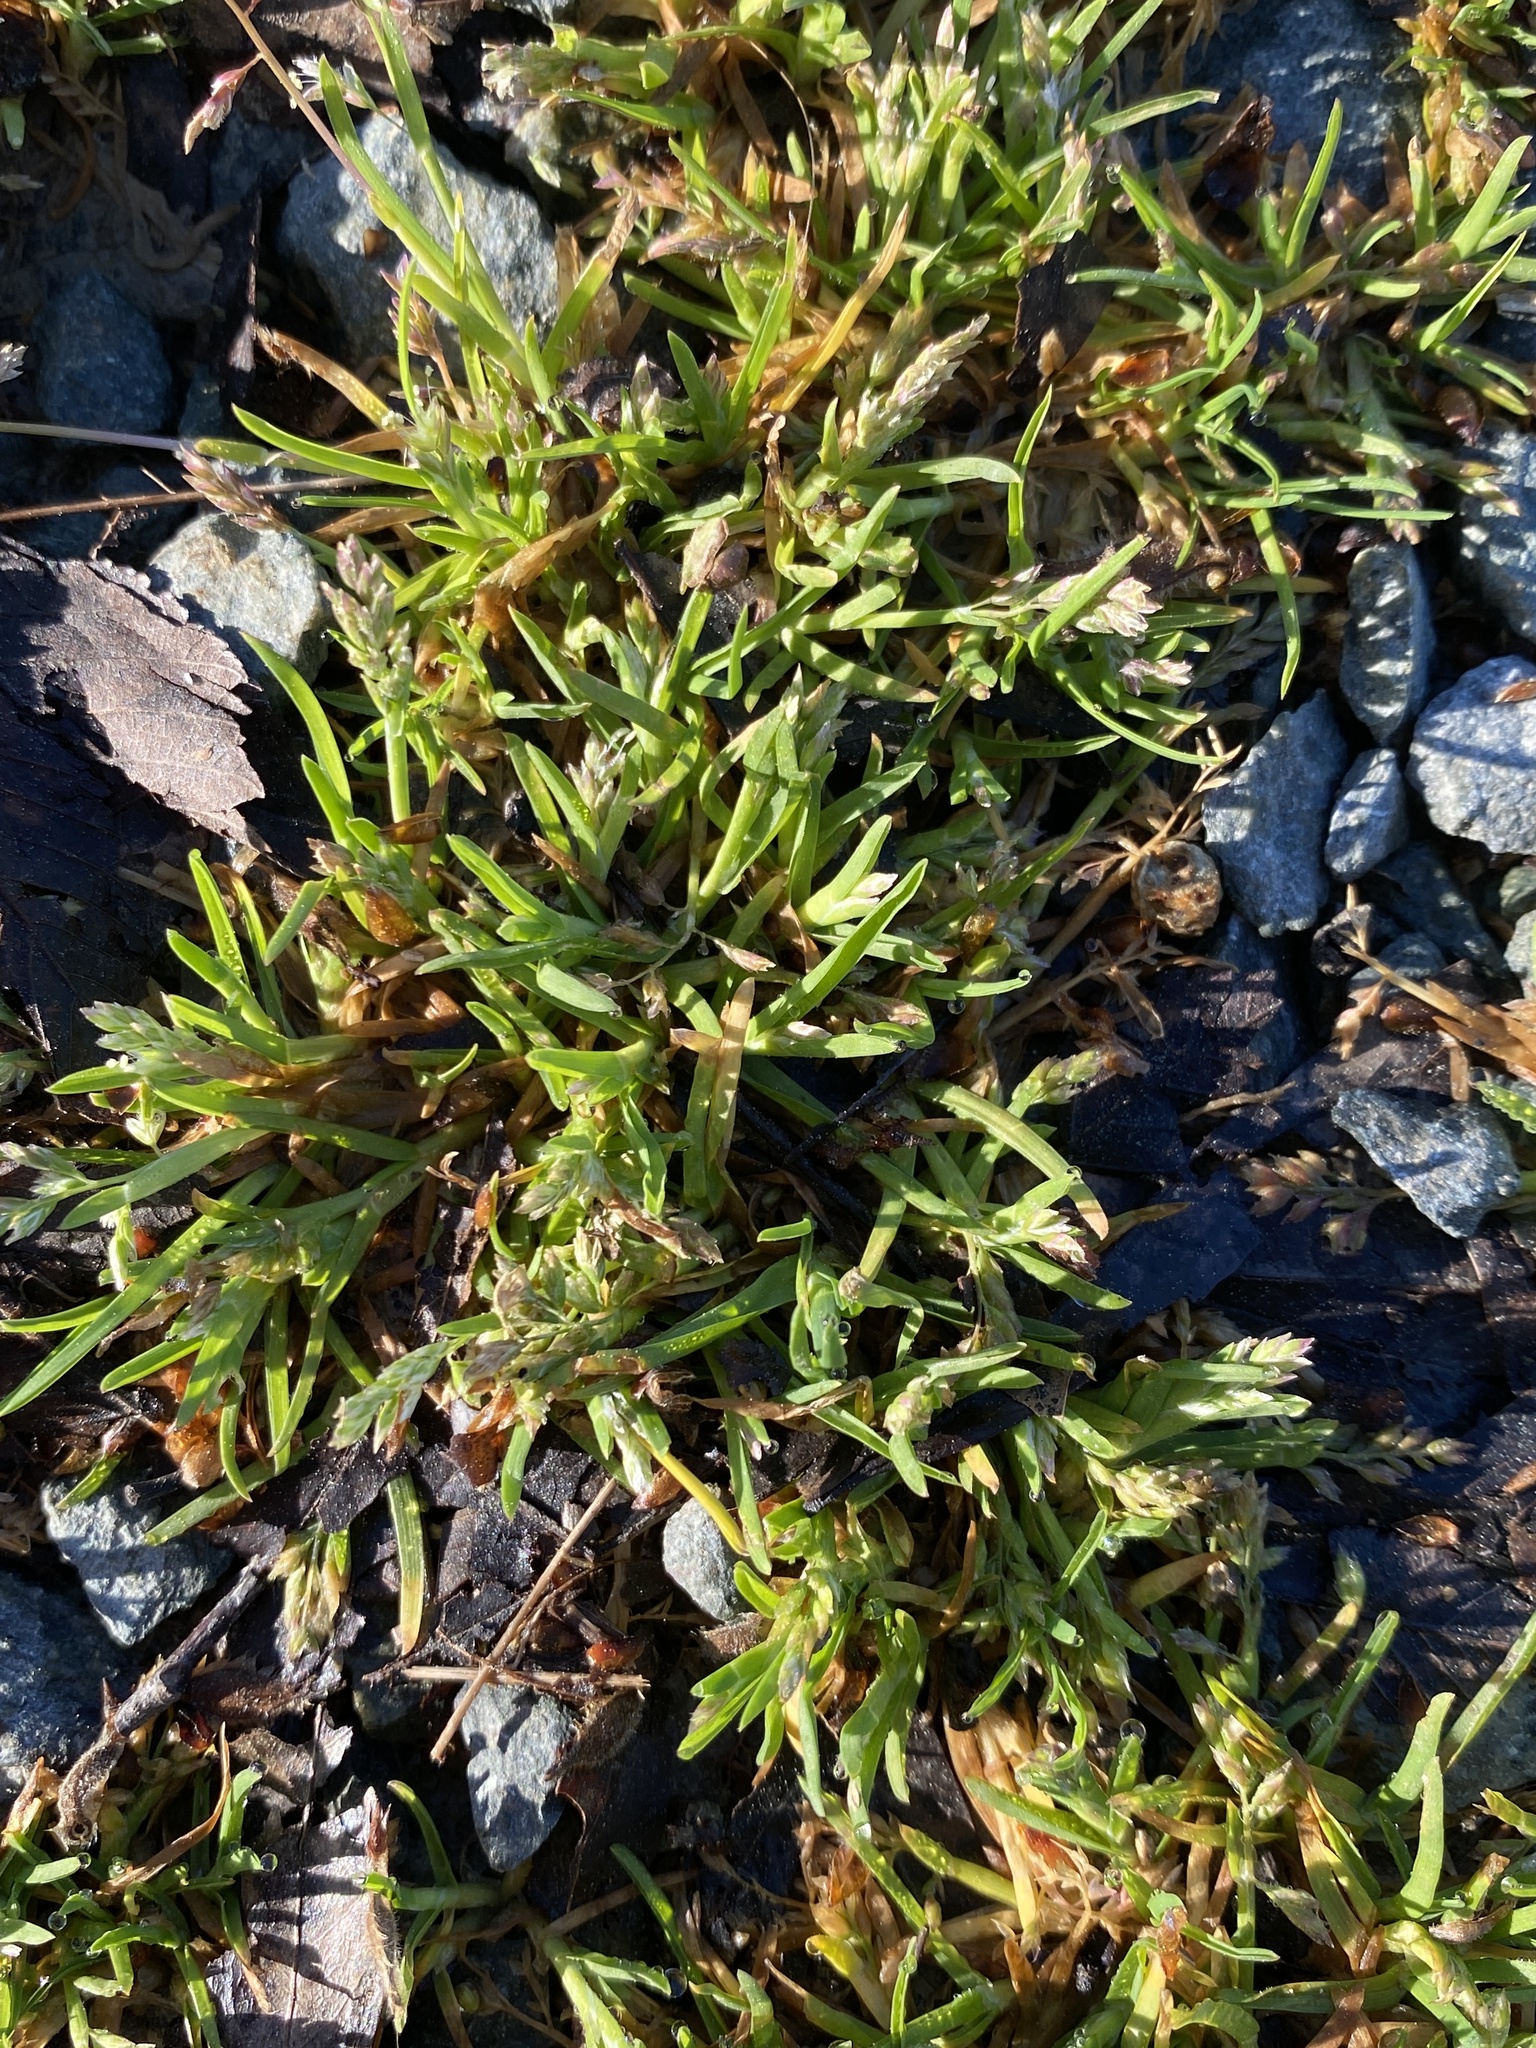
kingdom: Plantae
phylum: Tracheophyta
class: Liliopsida
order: Poales
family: Poaceae
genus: Poa
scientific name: Poa annua
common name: Annual bluegrass
